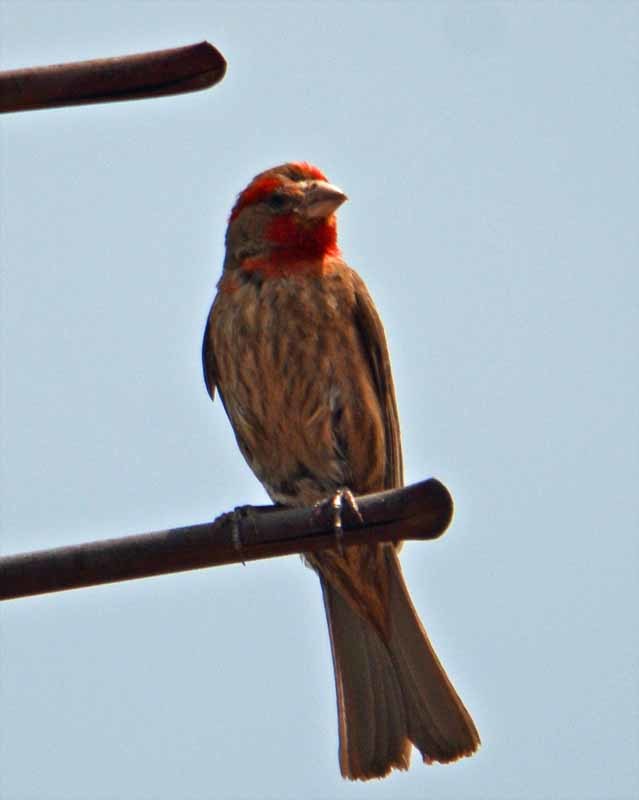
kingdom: Animalia
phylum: Chordata
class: Aves
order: Passeriformes
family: Fringillidae
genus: Haemorhous
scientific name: Haemorhous mexicanus
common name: House finch
